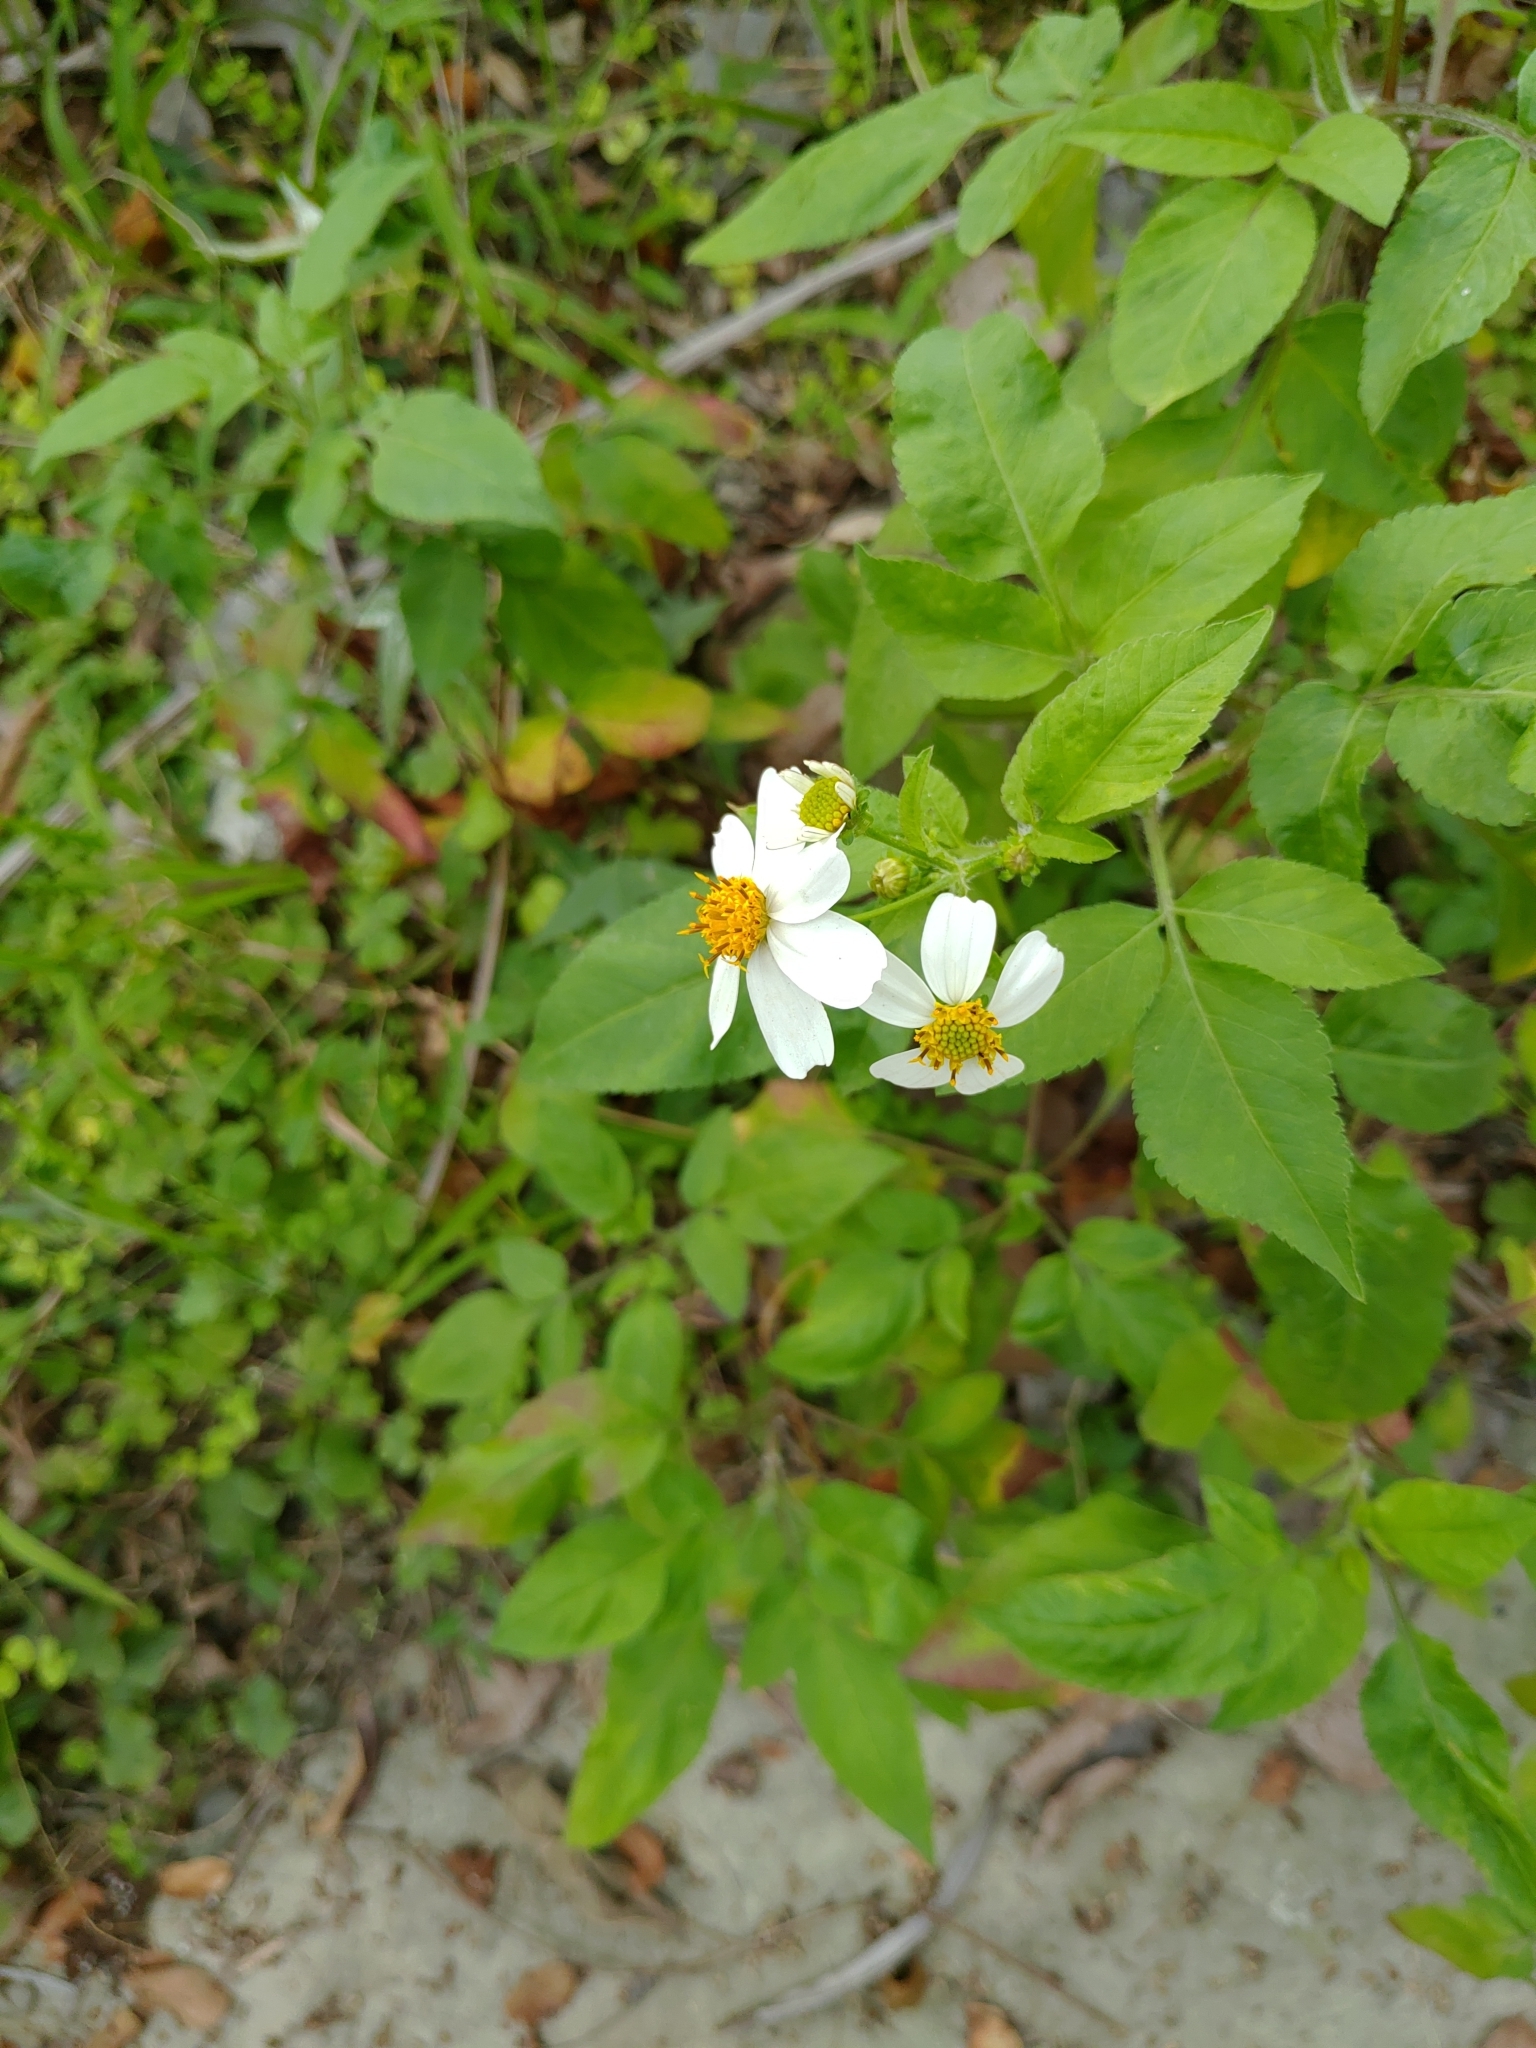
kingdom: Plantae
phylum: Tracheophyta
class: Magnoliopsida
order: Asterales
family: Asteraceae
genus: Bidens
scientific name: Bidens alba
